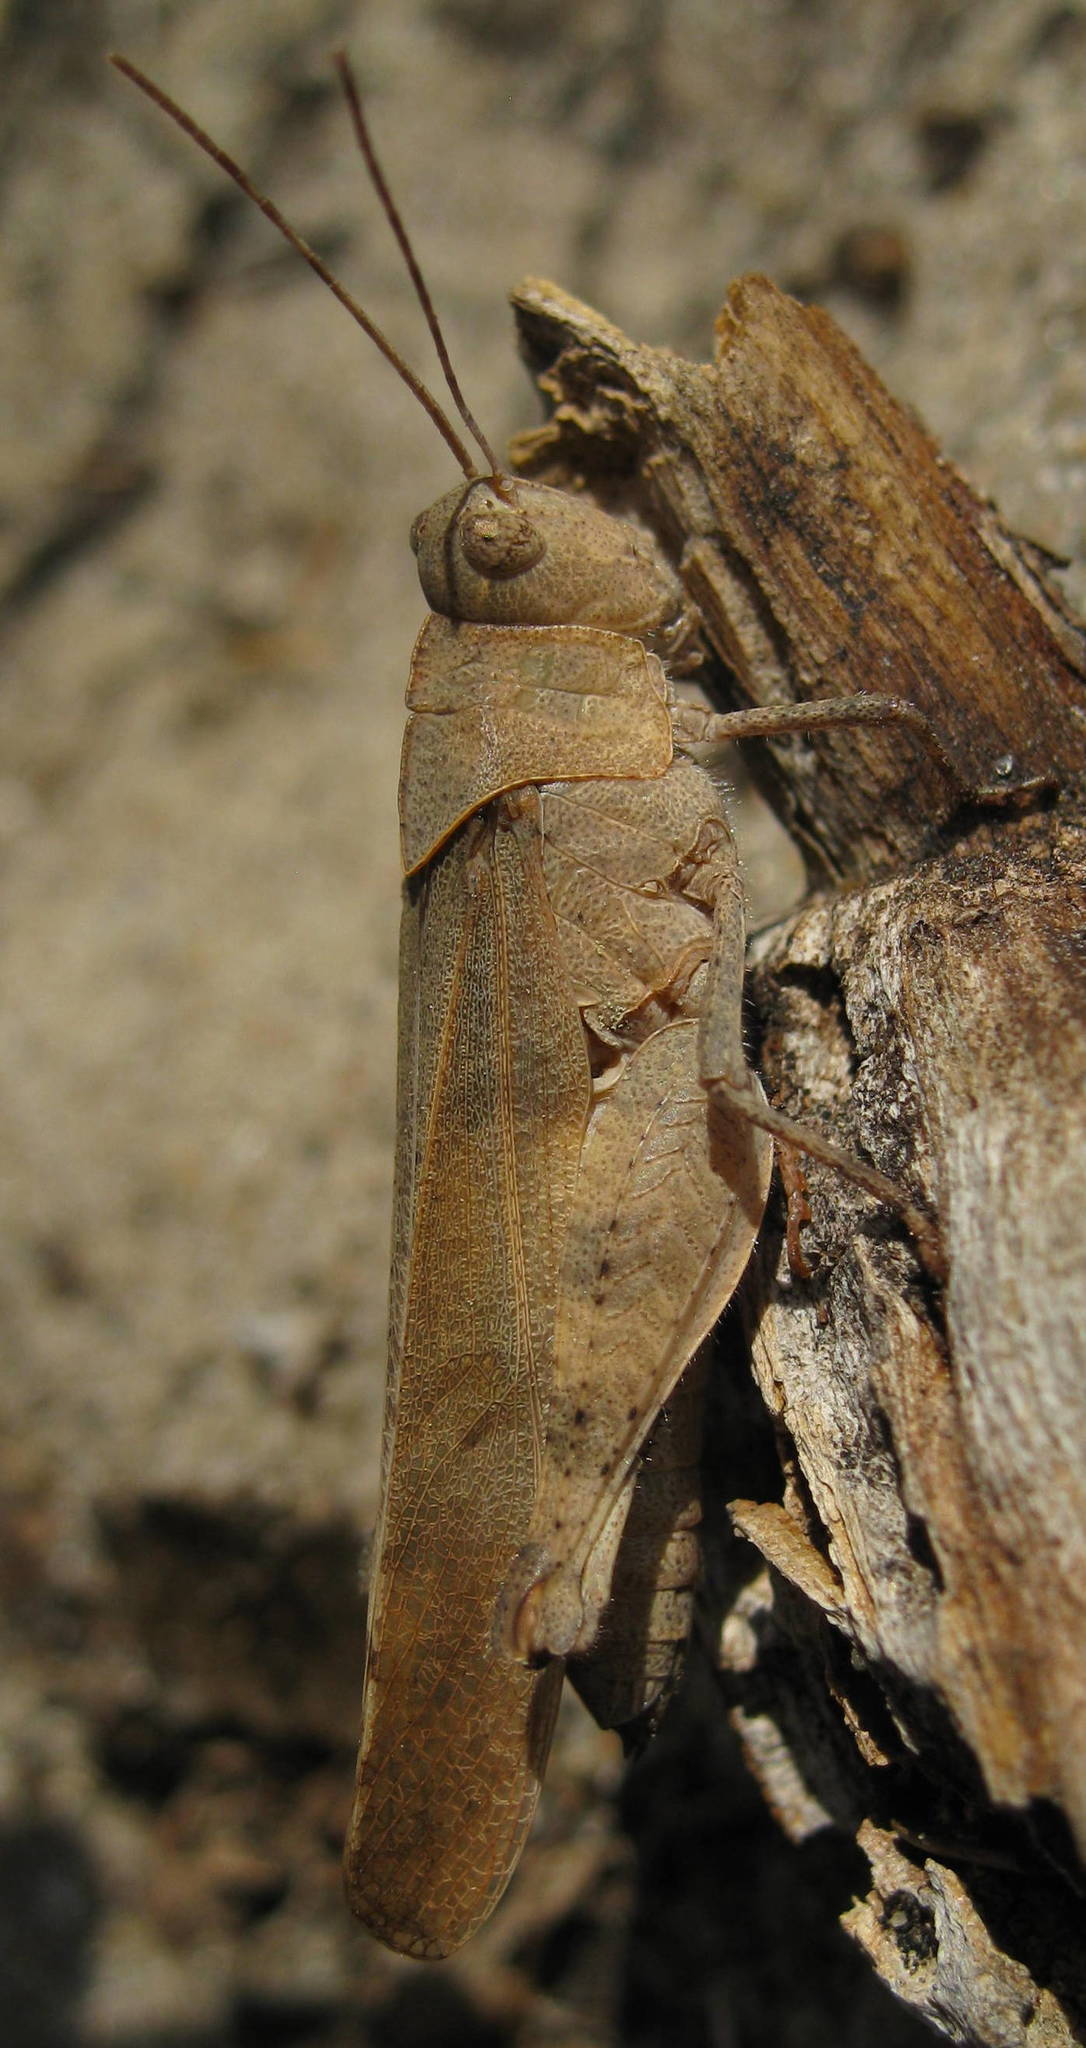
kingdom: Animalia
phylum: Arthropoda
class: Insecta
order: Orthoptera
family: Acrididae
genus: Spharagemon
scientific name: Spharagemon bolli
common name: Boll's grasshopper
